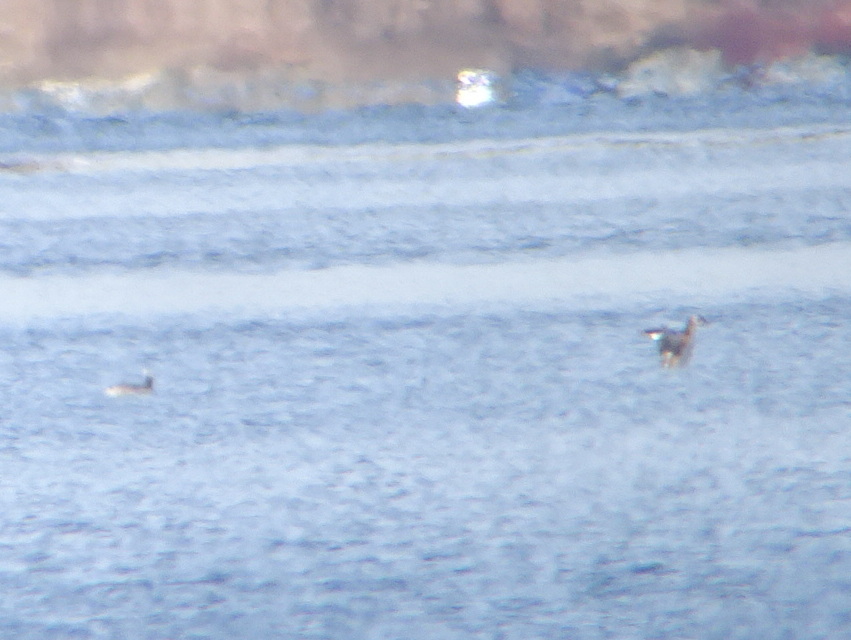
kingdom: Animalia
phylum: Chordata
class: Aves
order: Podicipediformes
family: Podicipedidae
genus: Podiceps
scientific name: Podiceps auritus
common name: Horned grebe
